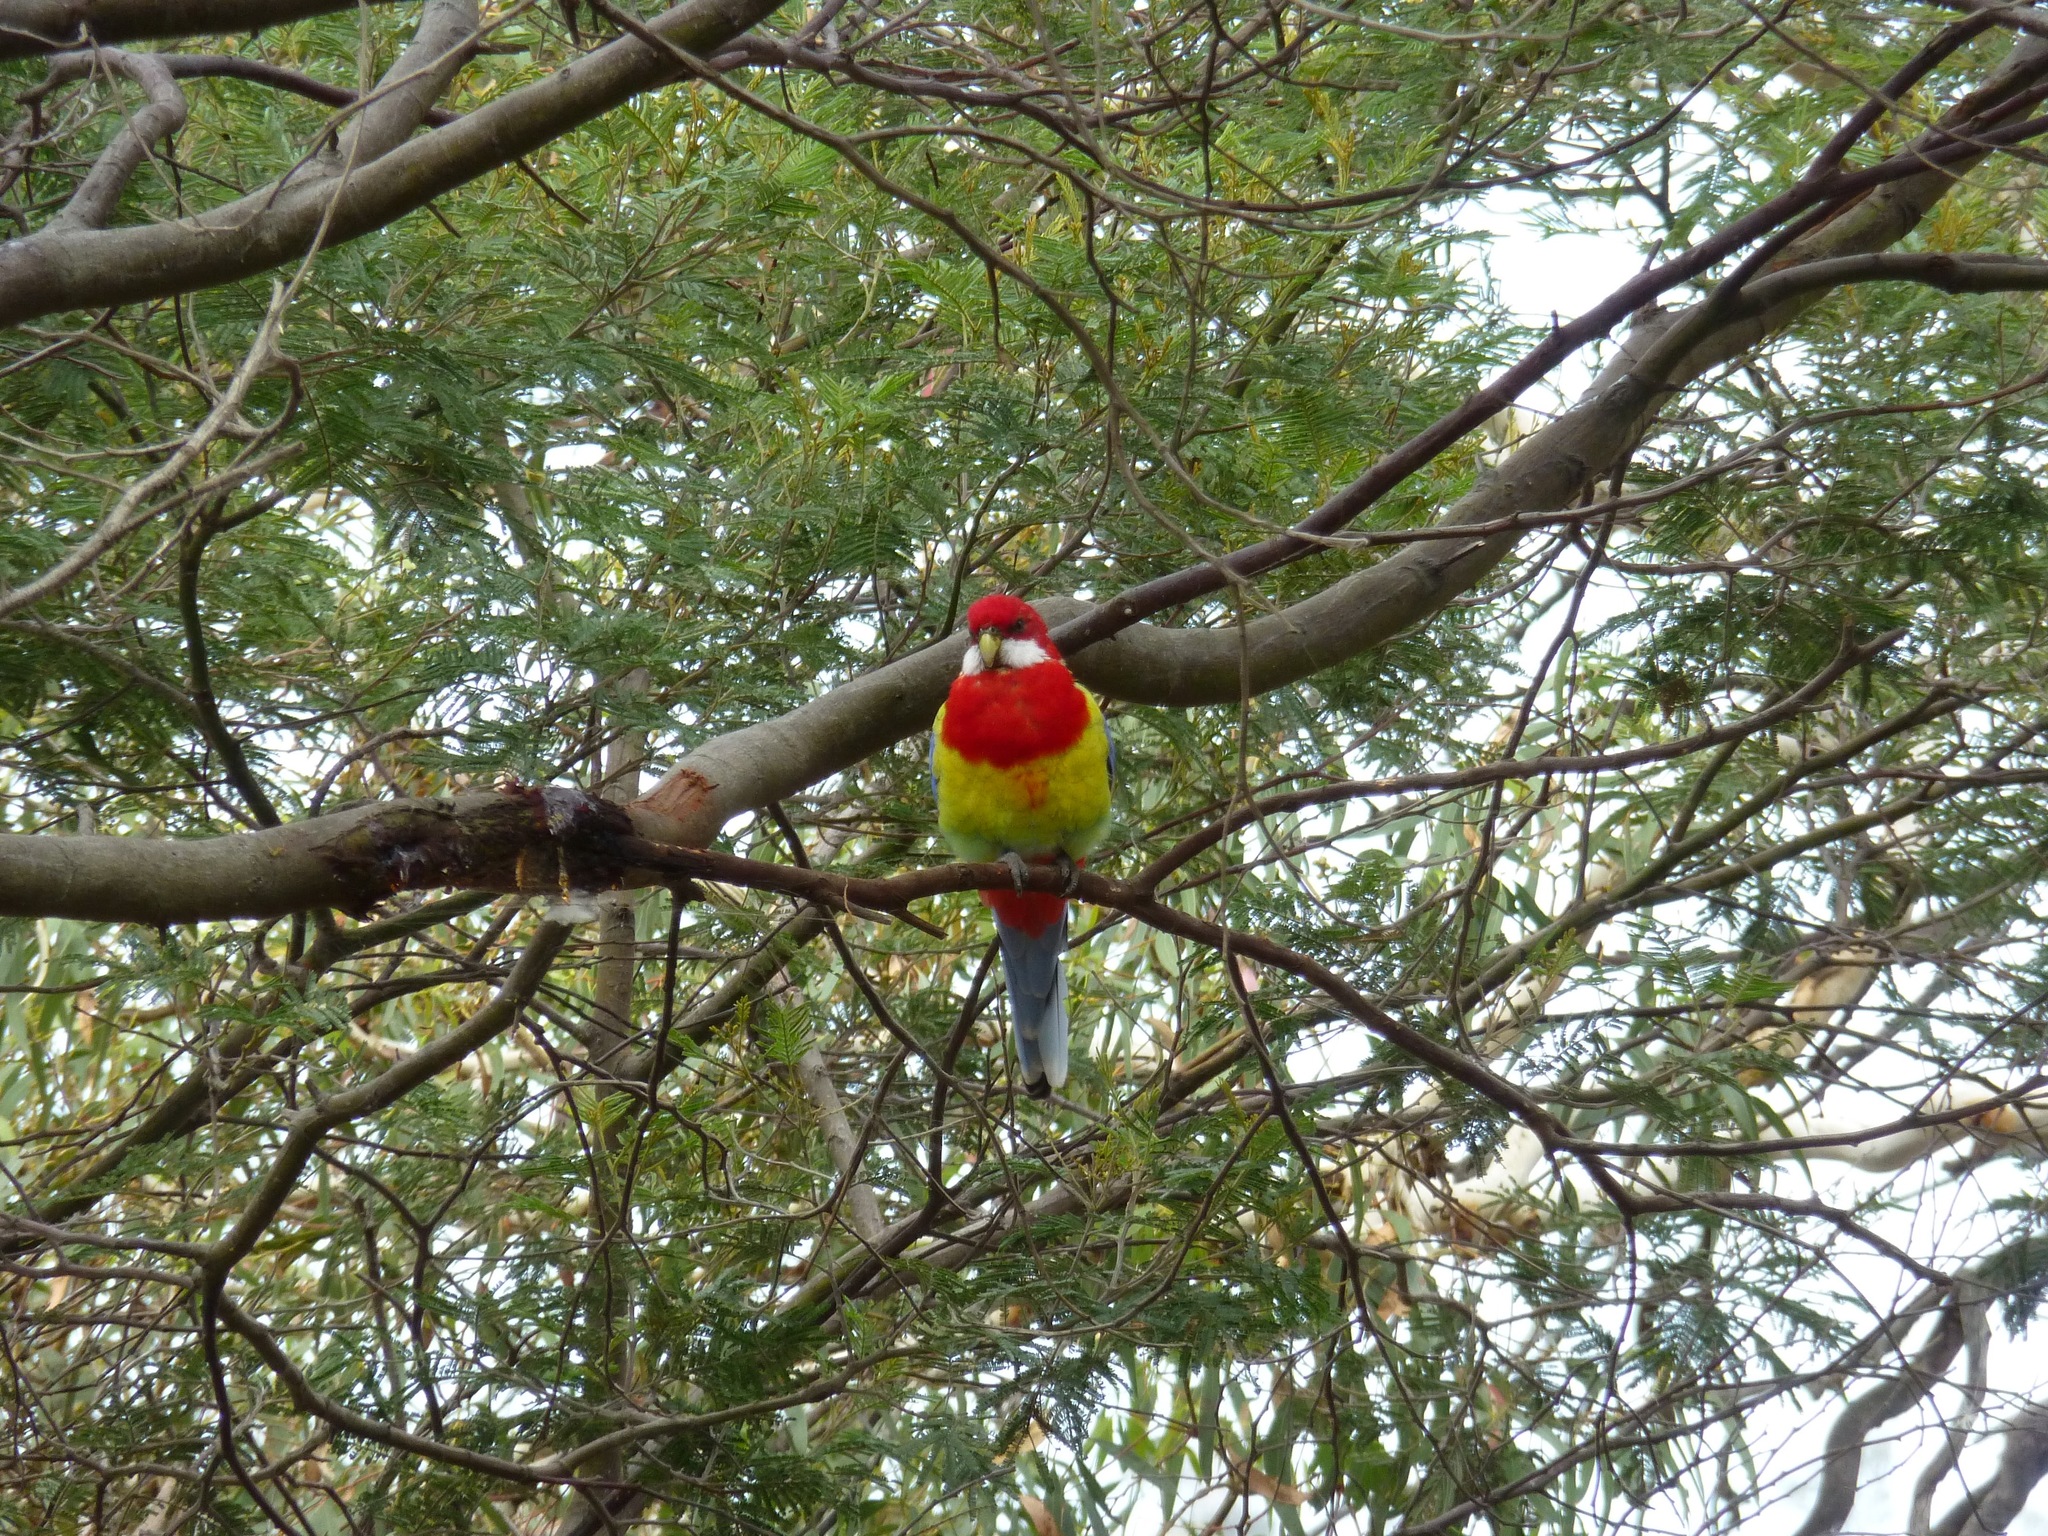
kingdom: Animalia
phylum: Chordata
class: Aves
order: Psittaciformes
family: Psittacidae
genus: Platycercus
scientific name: Platycercus eximius
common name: Eastern rosella
